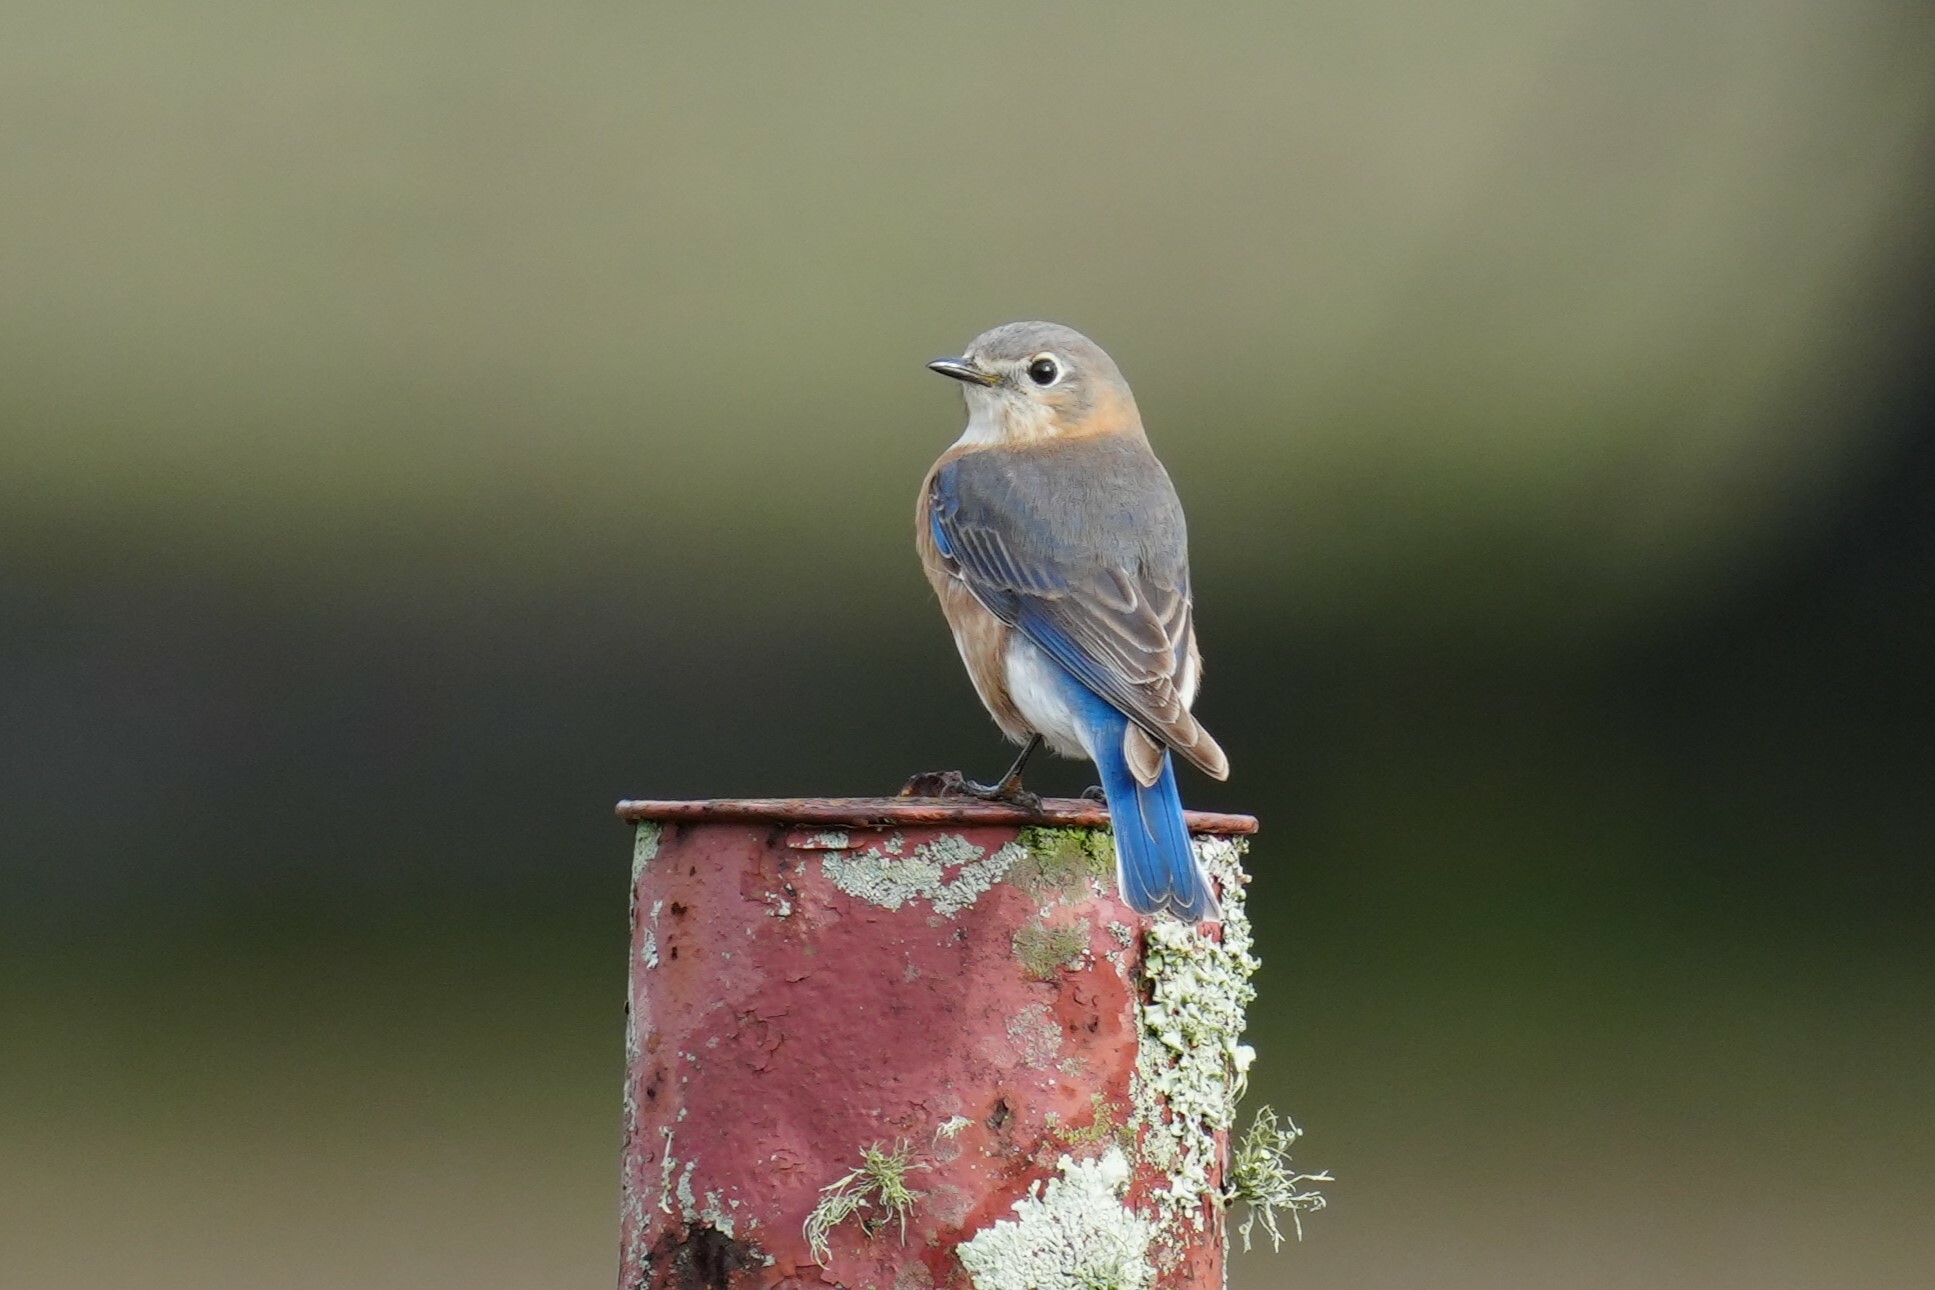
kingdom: Animalia
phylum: Chordata
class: Aves
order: Passeriformes
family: Turdidae
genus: Sialia
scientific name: Sialia sialis
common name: Eastern bluebird
